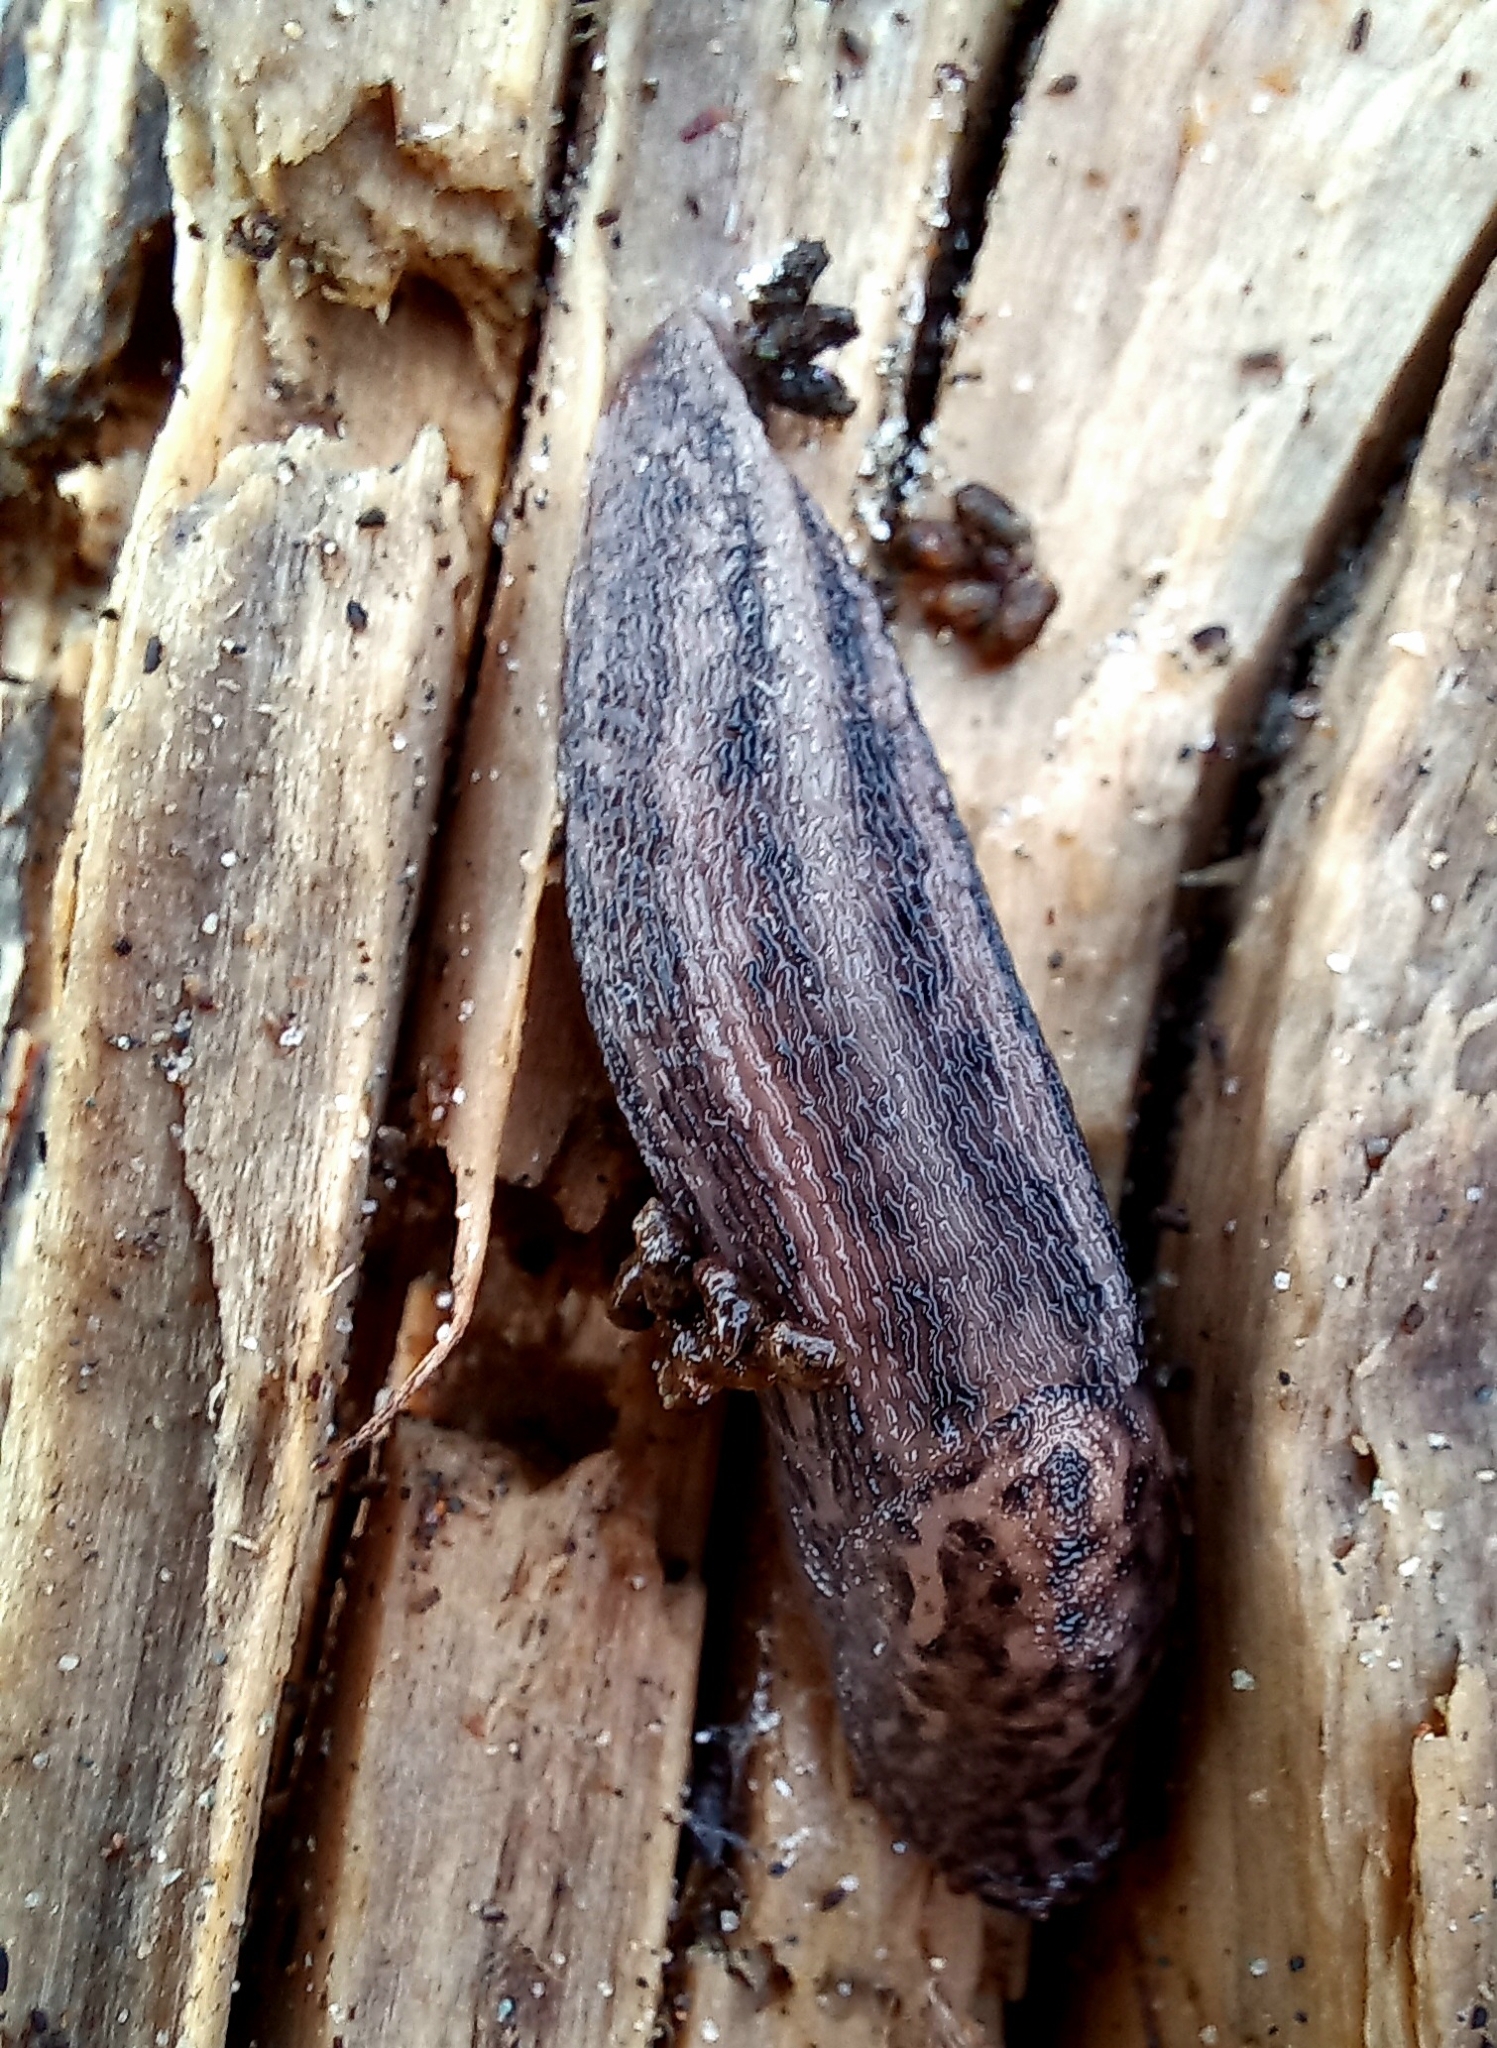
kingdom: Animalia
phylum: Mollusca
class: Gastropoda
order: Stylommatophora
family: Limacidae
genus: Limax
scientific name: Limax maximus
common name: Great grey slug
